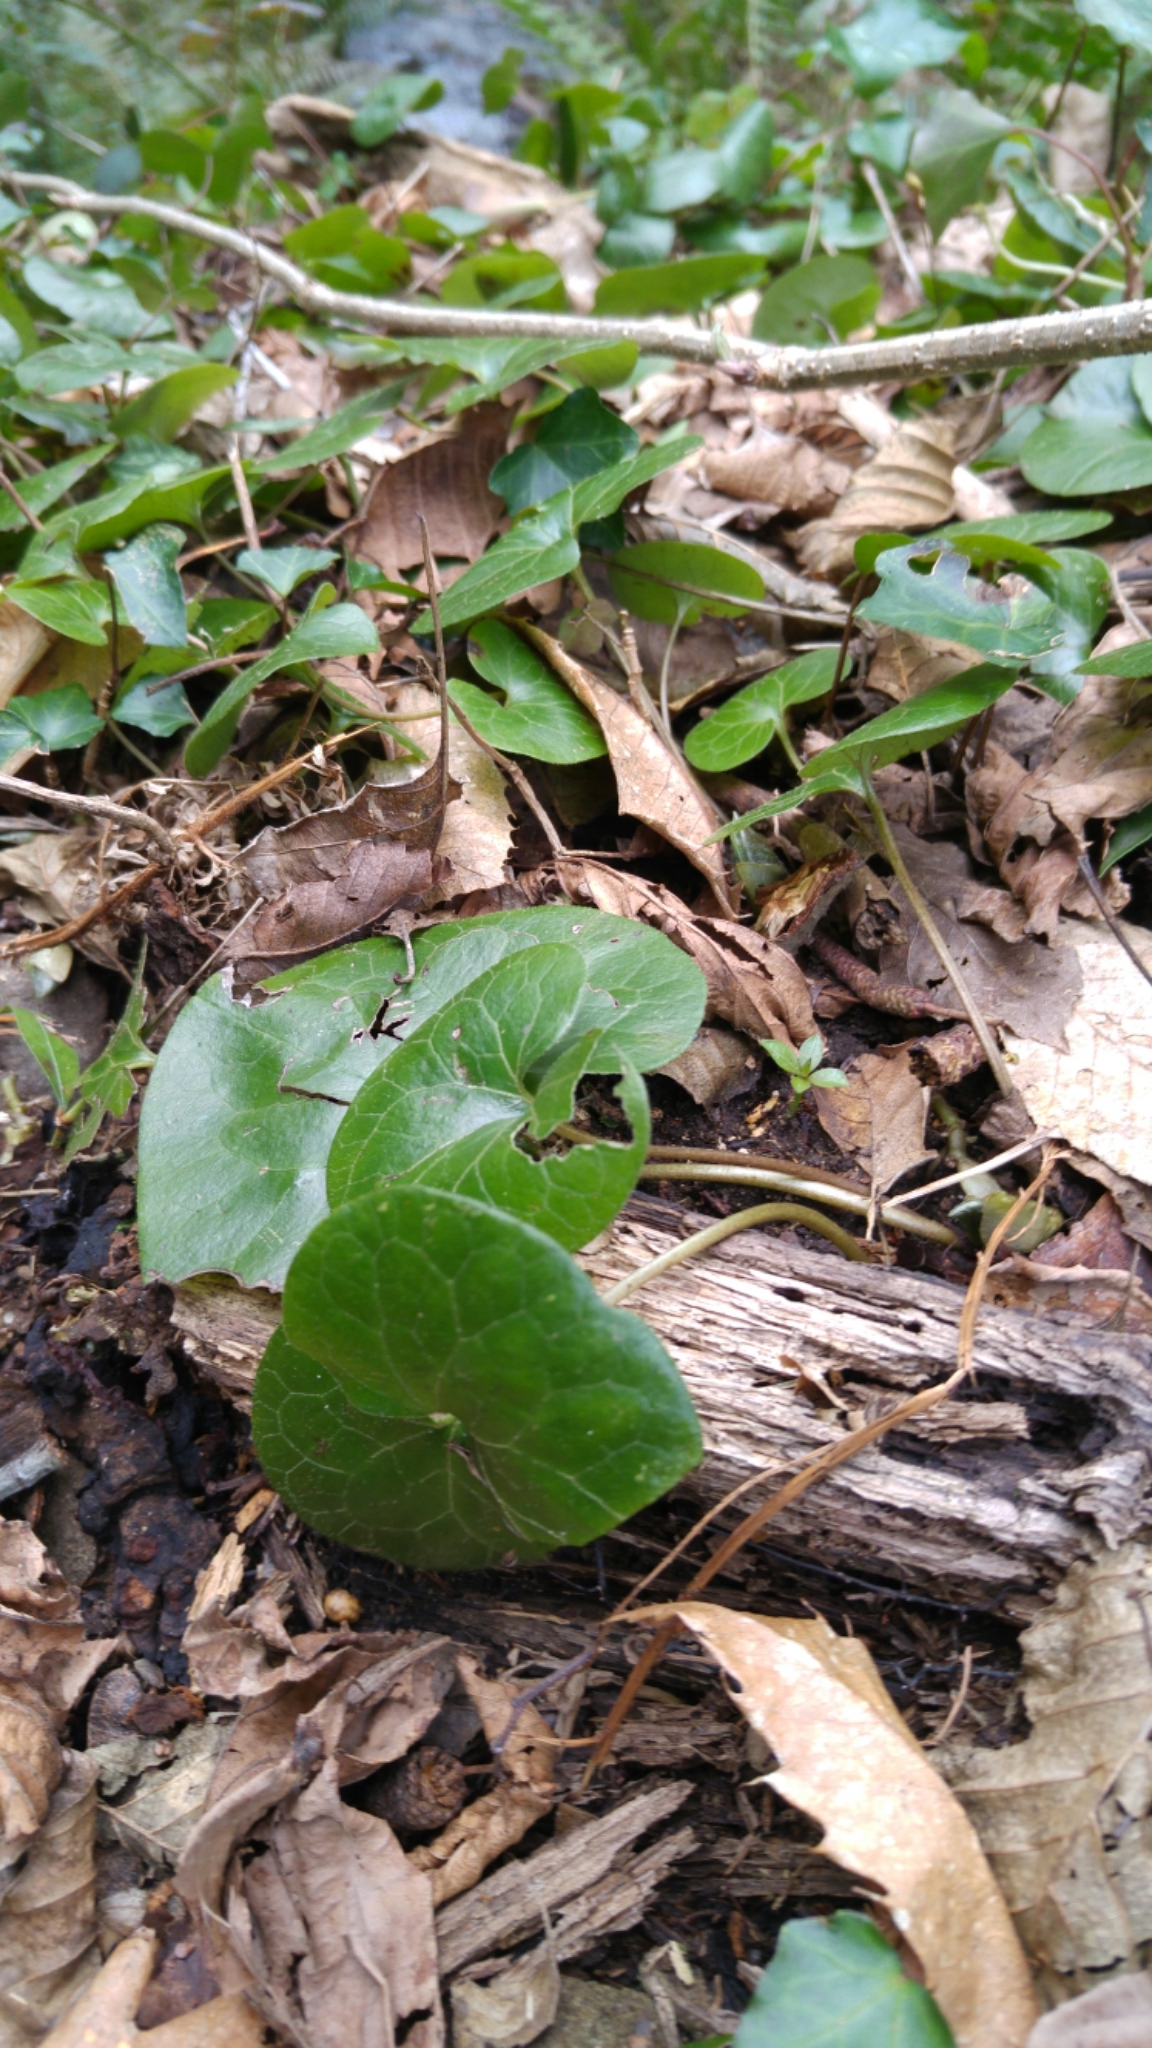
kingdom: Plantae
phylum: Tracheophyta
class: Magnoliopsida
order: Piperales
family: Aristolochiaceae
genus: Asarum
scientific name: Asarum europaeum
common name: Asarabacca
